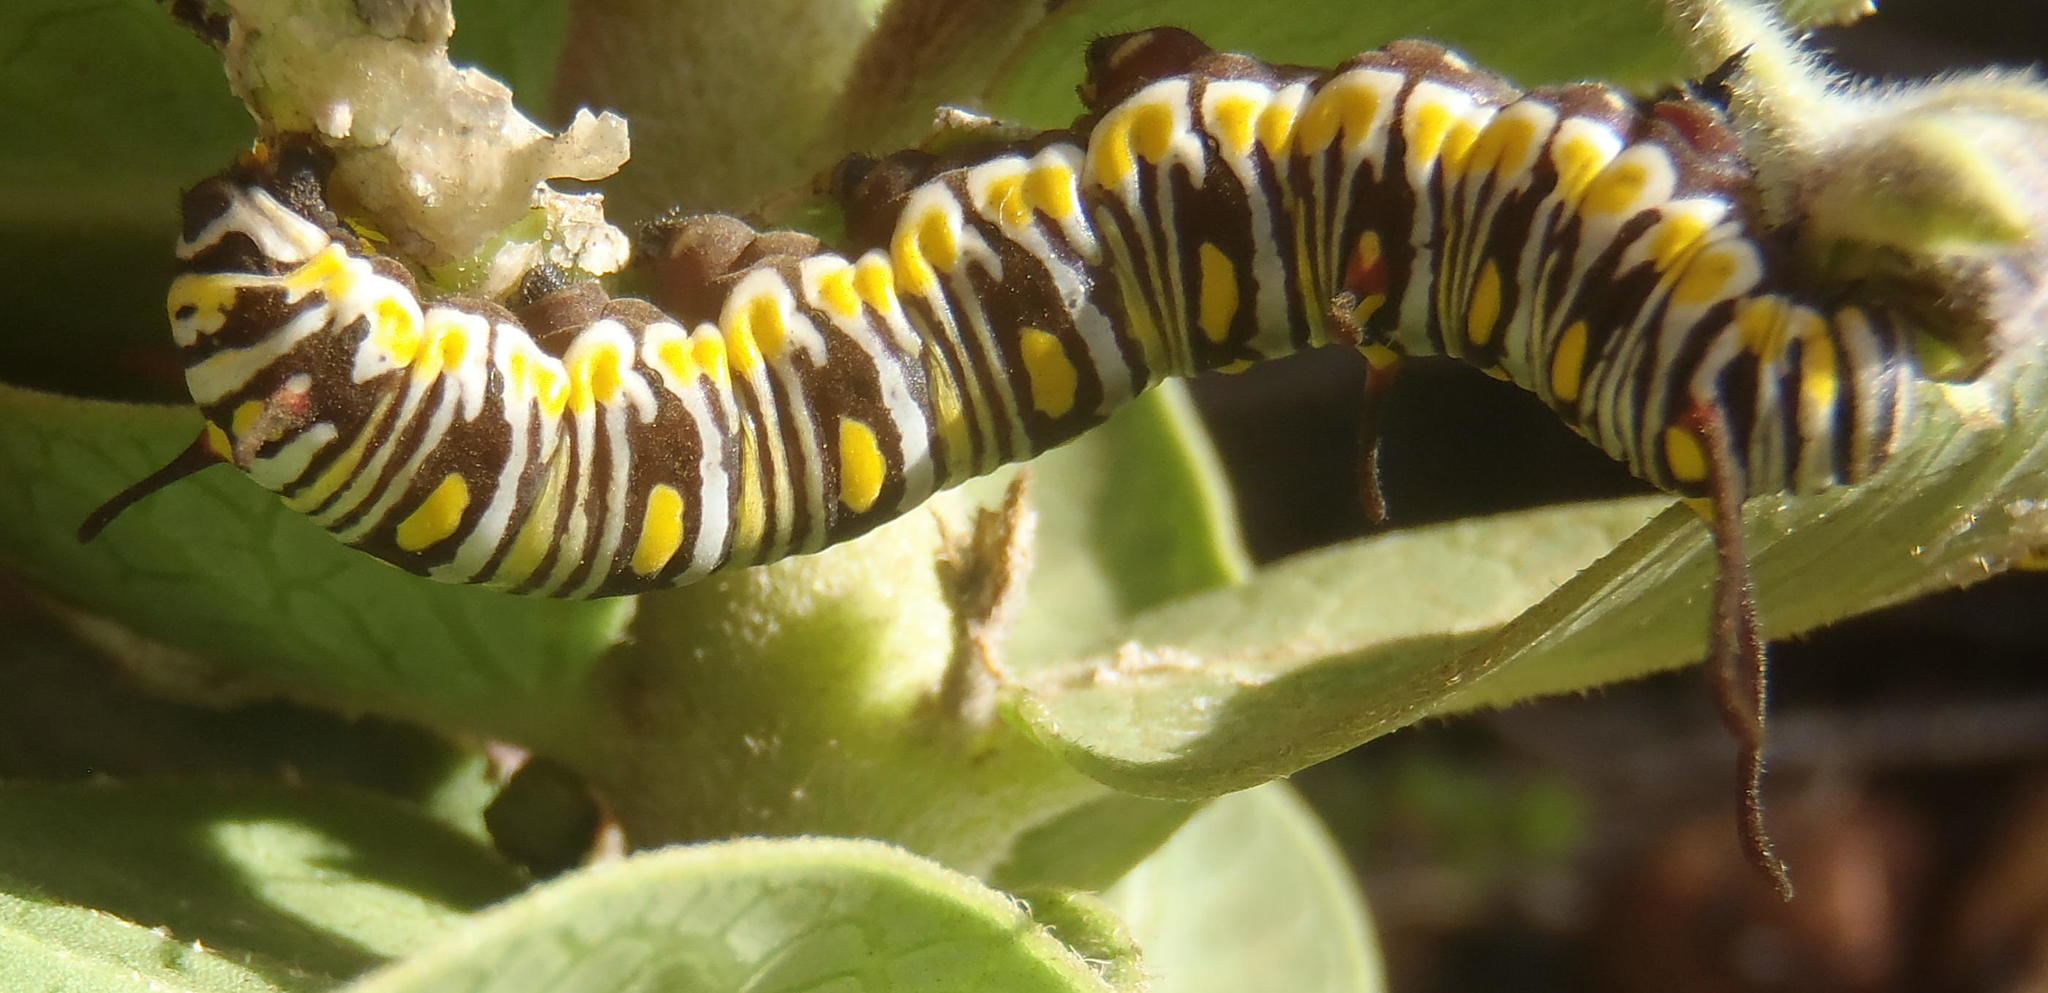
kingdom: Animalia
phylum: Arthropoda
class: Insecta
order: Lepidoptera
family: Nymphalidae
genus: Danaus
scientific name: Danaus chrysippus
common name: Plain tiger
